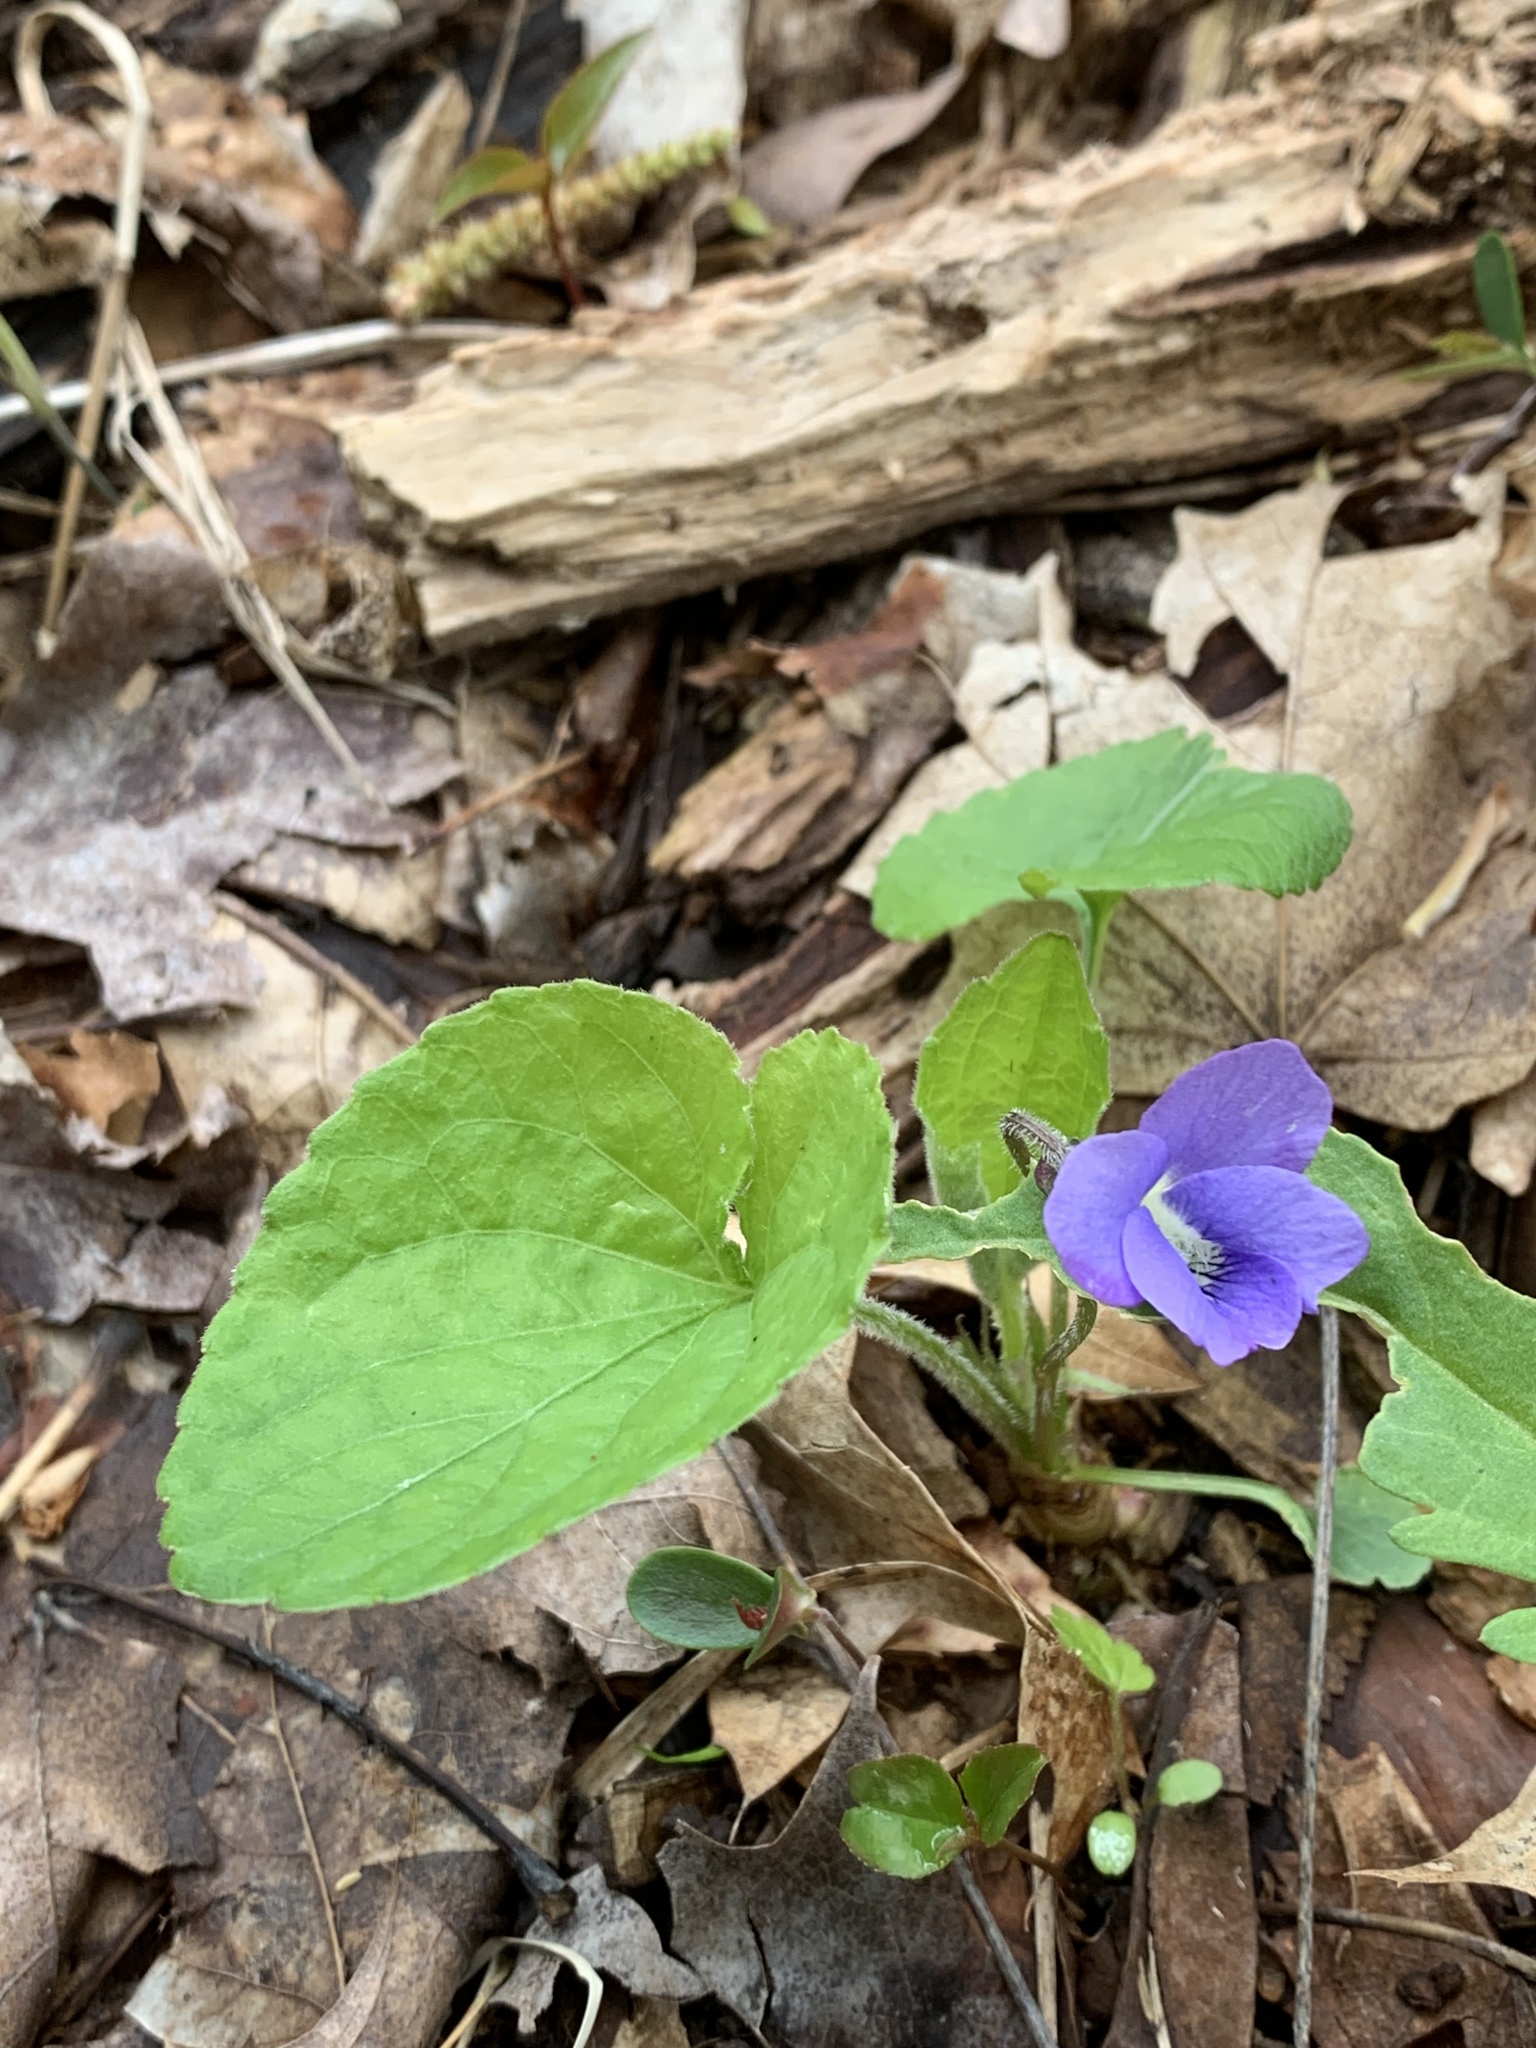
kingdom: Plantae
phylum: Tracheophyta
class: Magnoliopsida
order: Malpighiales
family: Violaceae
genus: Viola
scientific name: Viola sororia
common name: Dooryard violet
